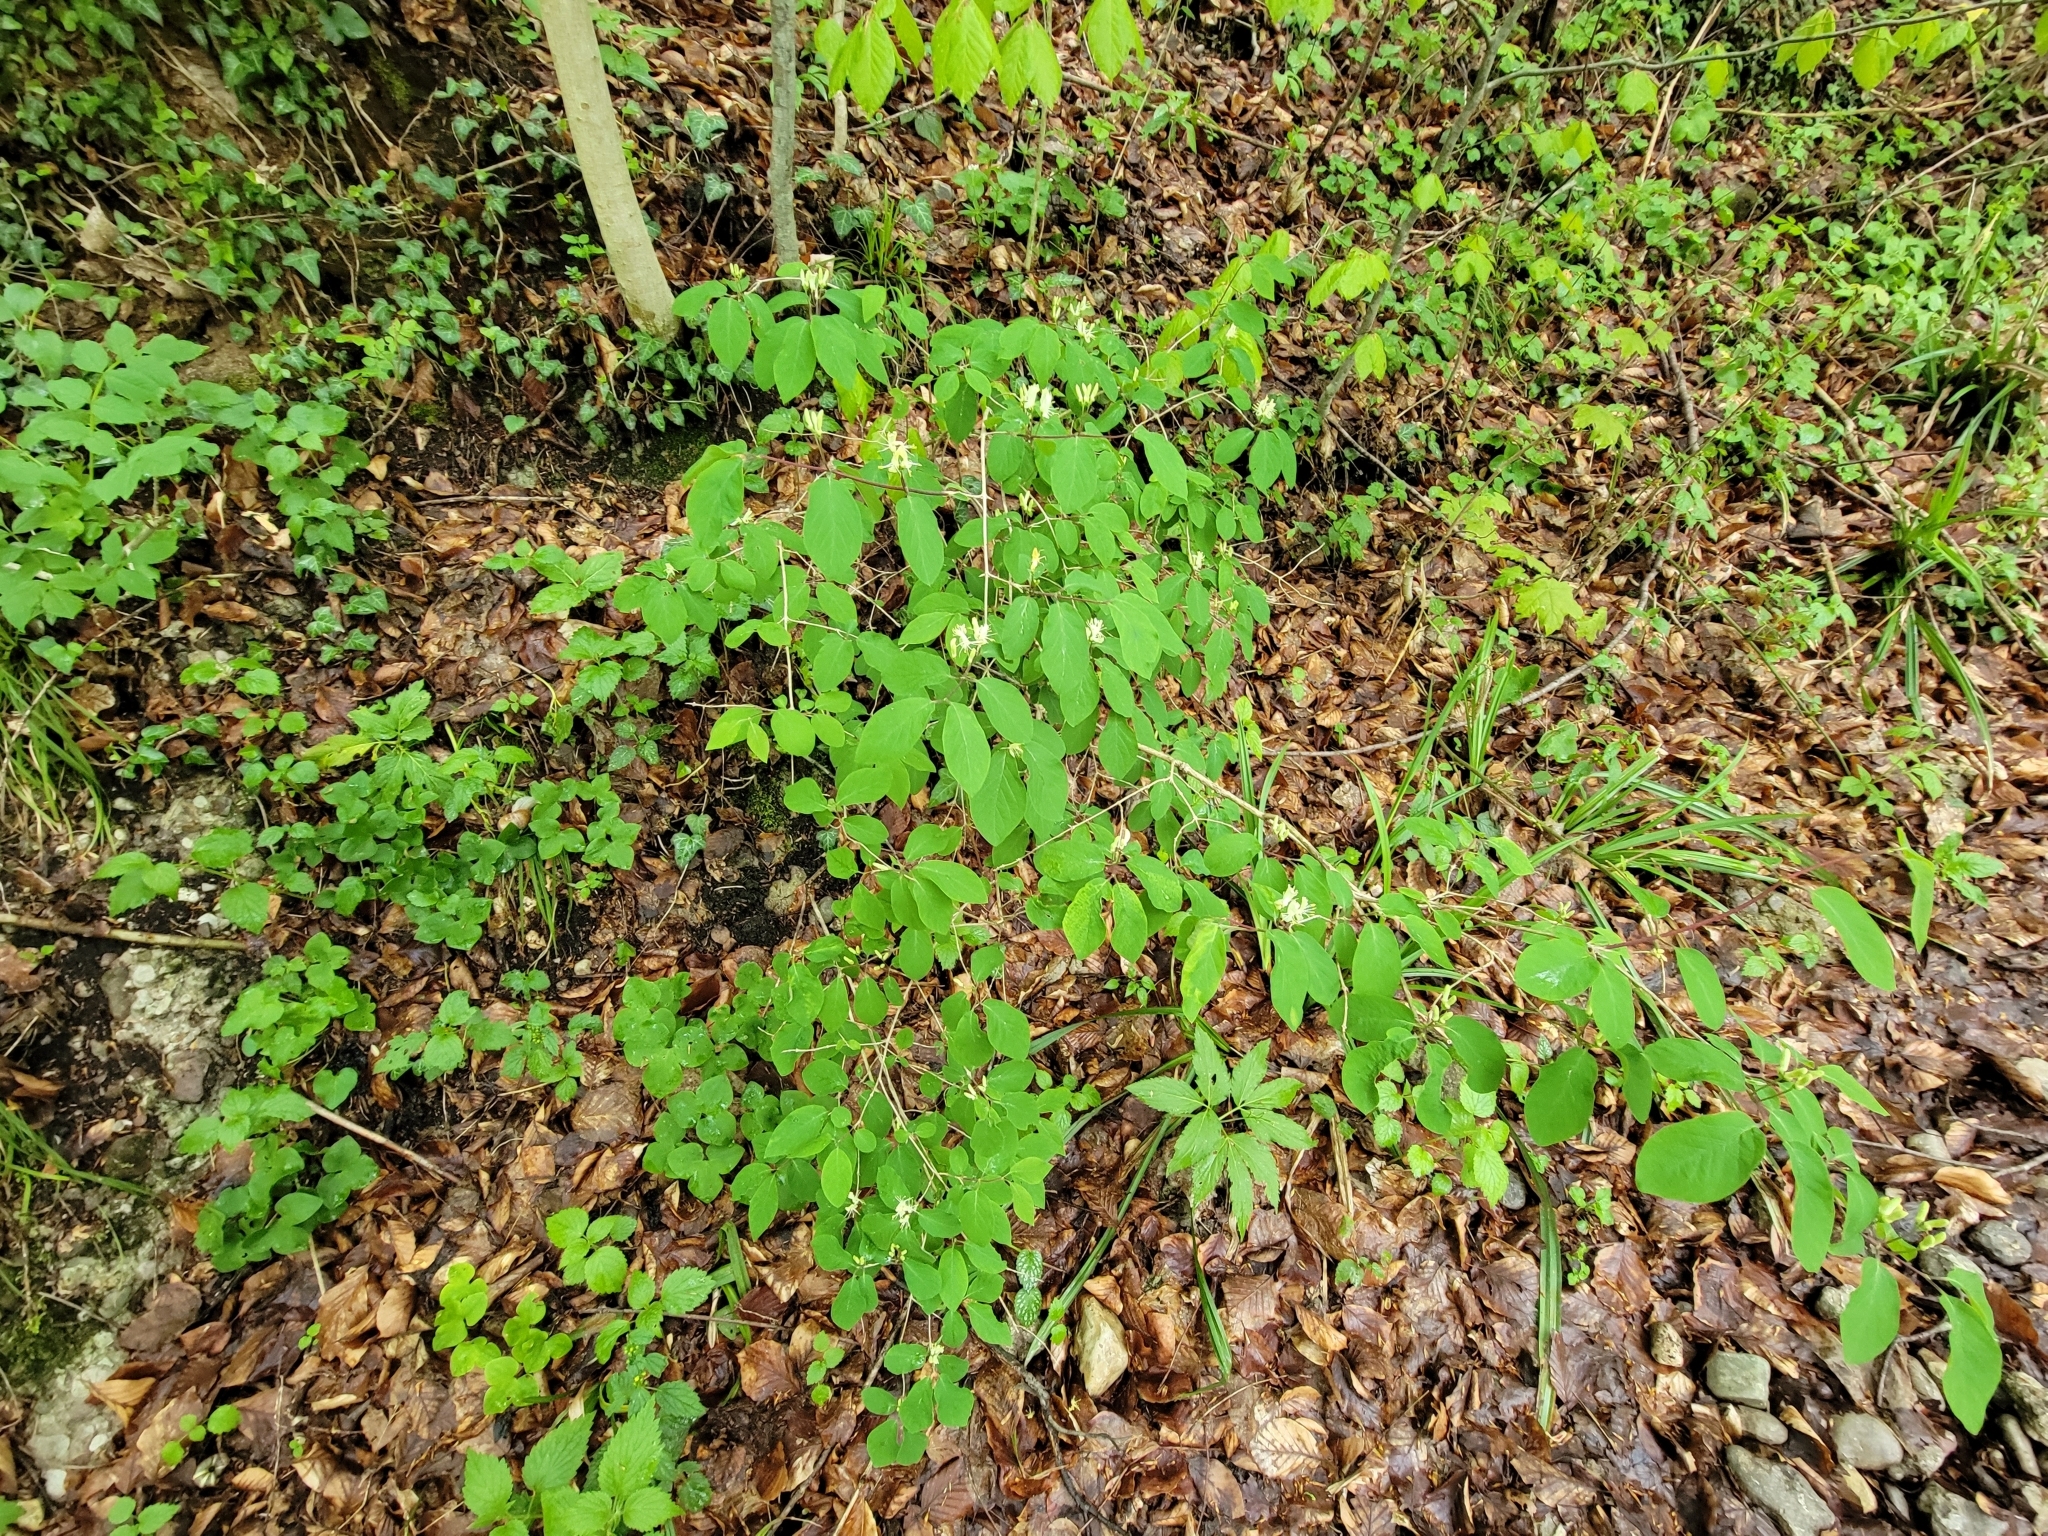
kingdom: Plantae
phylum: Tracheophyta
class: Magnoliopsida
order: Dipsacales
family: Caprifoliaceae
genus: Lonicera
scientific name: Lonicera xylosteum
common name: Fly honeysuckle
